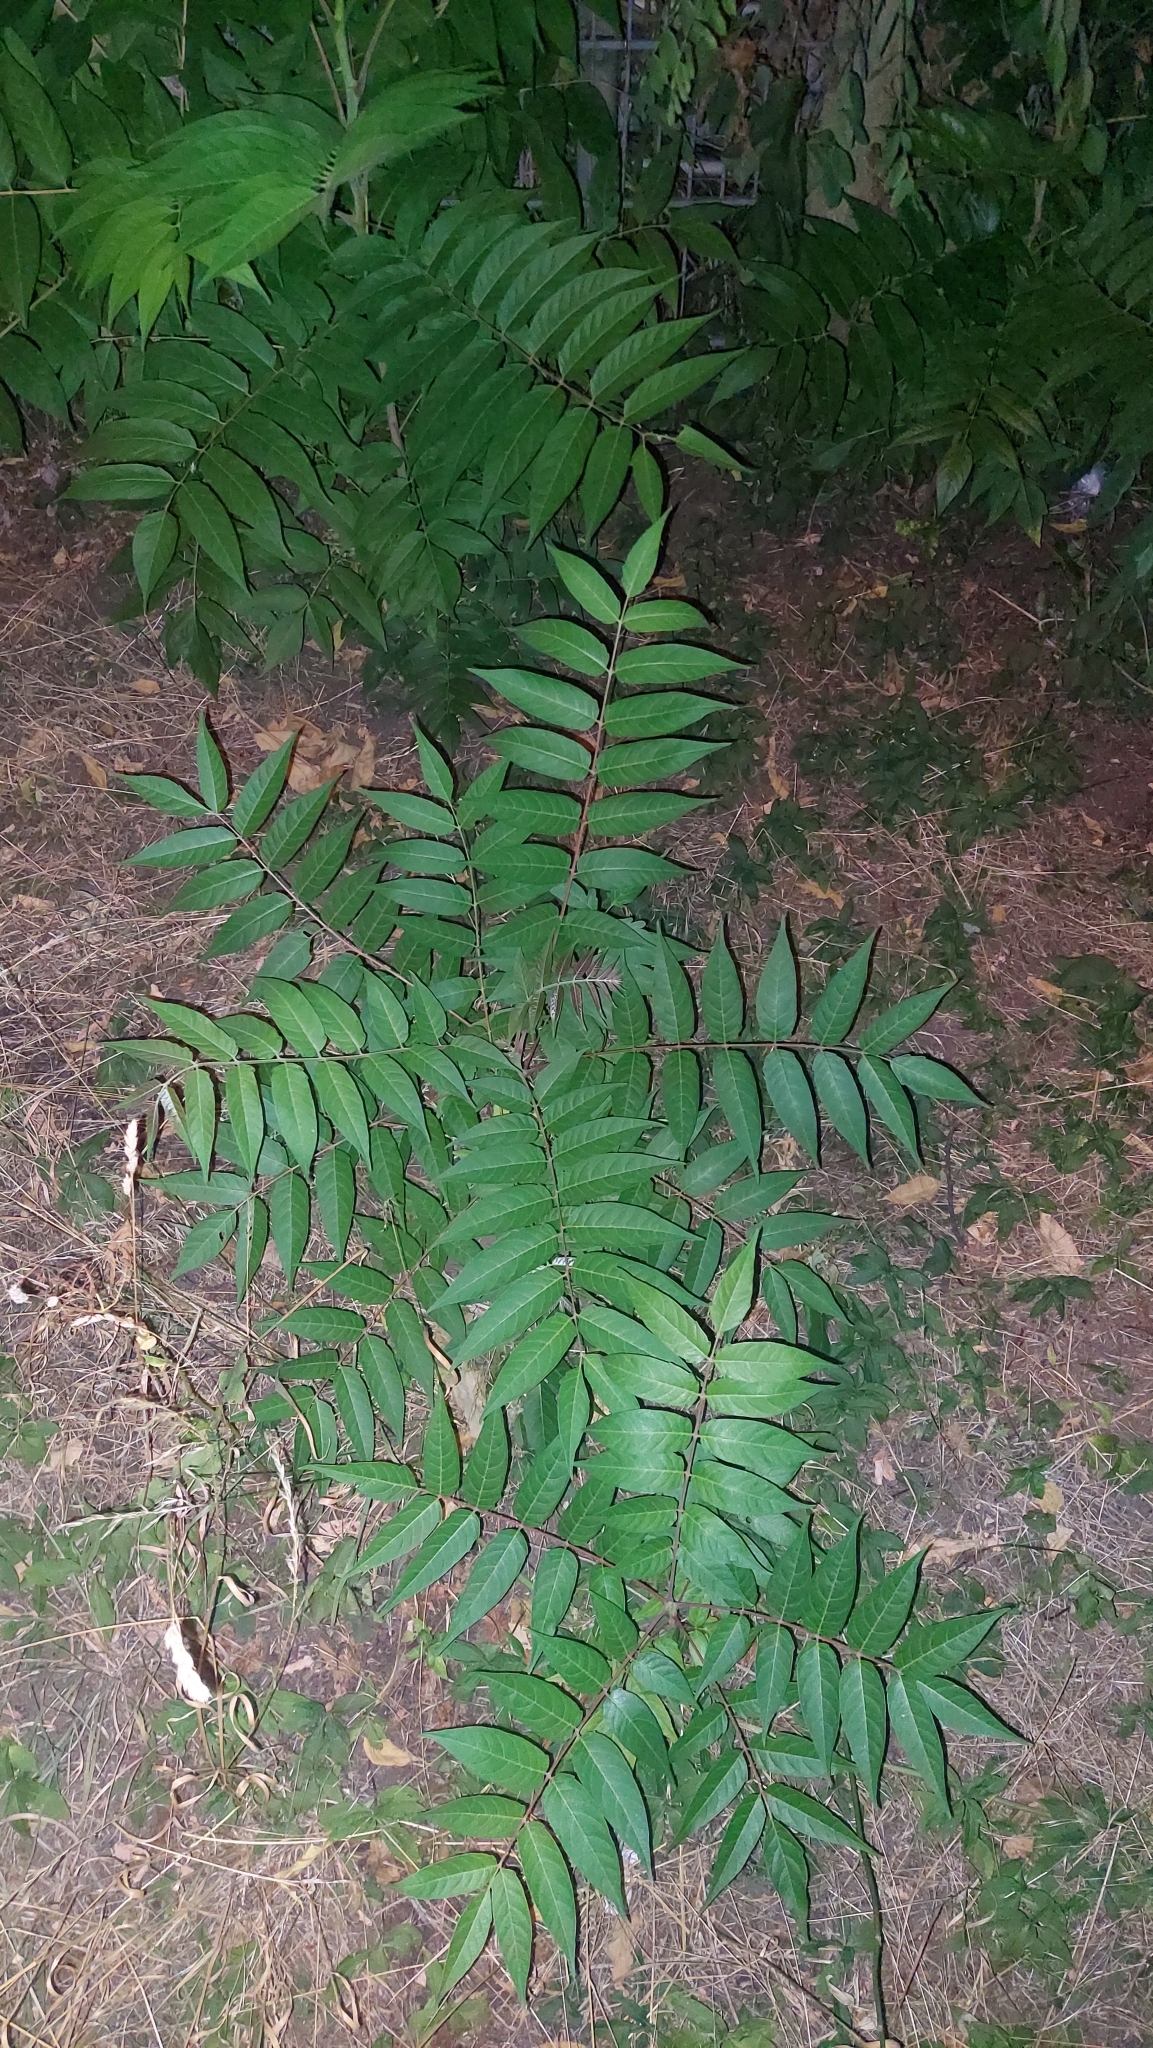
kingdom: Plantae
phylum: Tracheophyta
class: Magnoliopsida
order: Sapindales
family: Simaroubaceae
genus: Ailanthus
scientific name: Ailanthus altissima
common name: Tree-of-heaven
